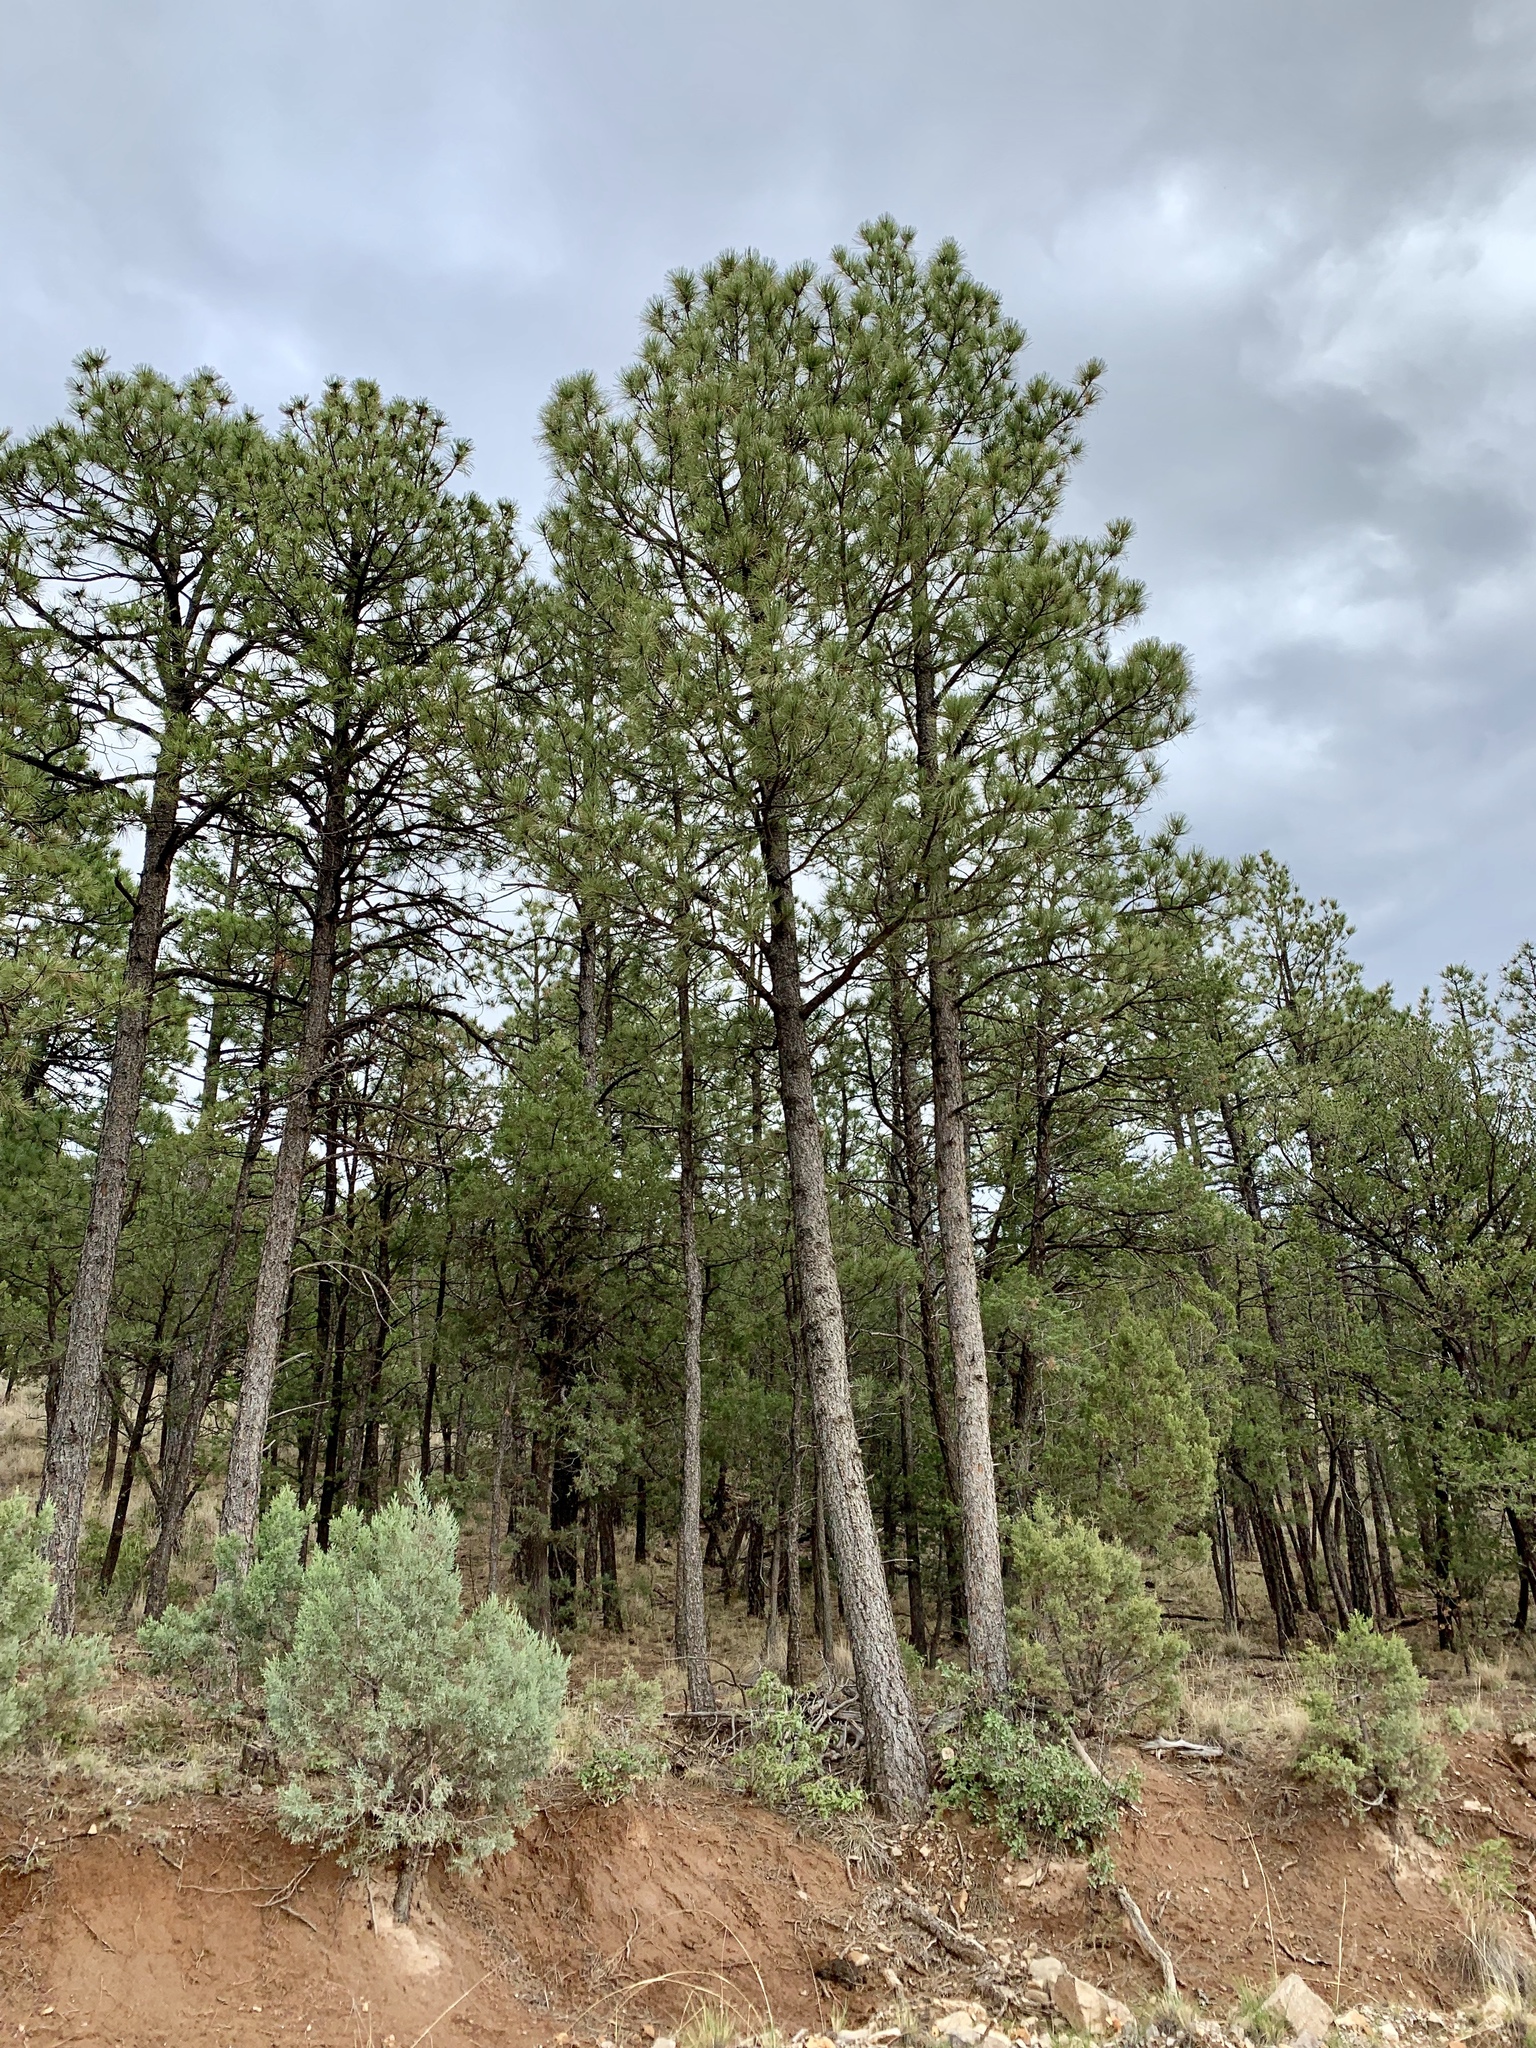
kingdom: Plantae
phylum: Tracheophyta
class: Pinopsida
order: Pinales
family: Pinaceae
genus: Pinus
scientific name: Pinus ponderosa
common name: Western yellow-pine
